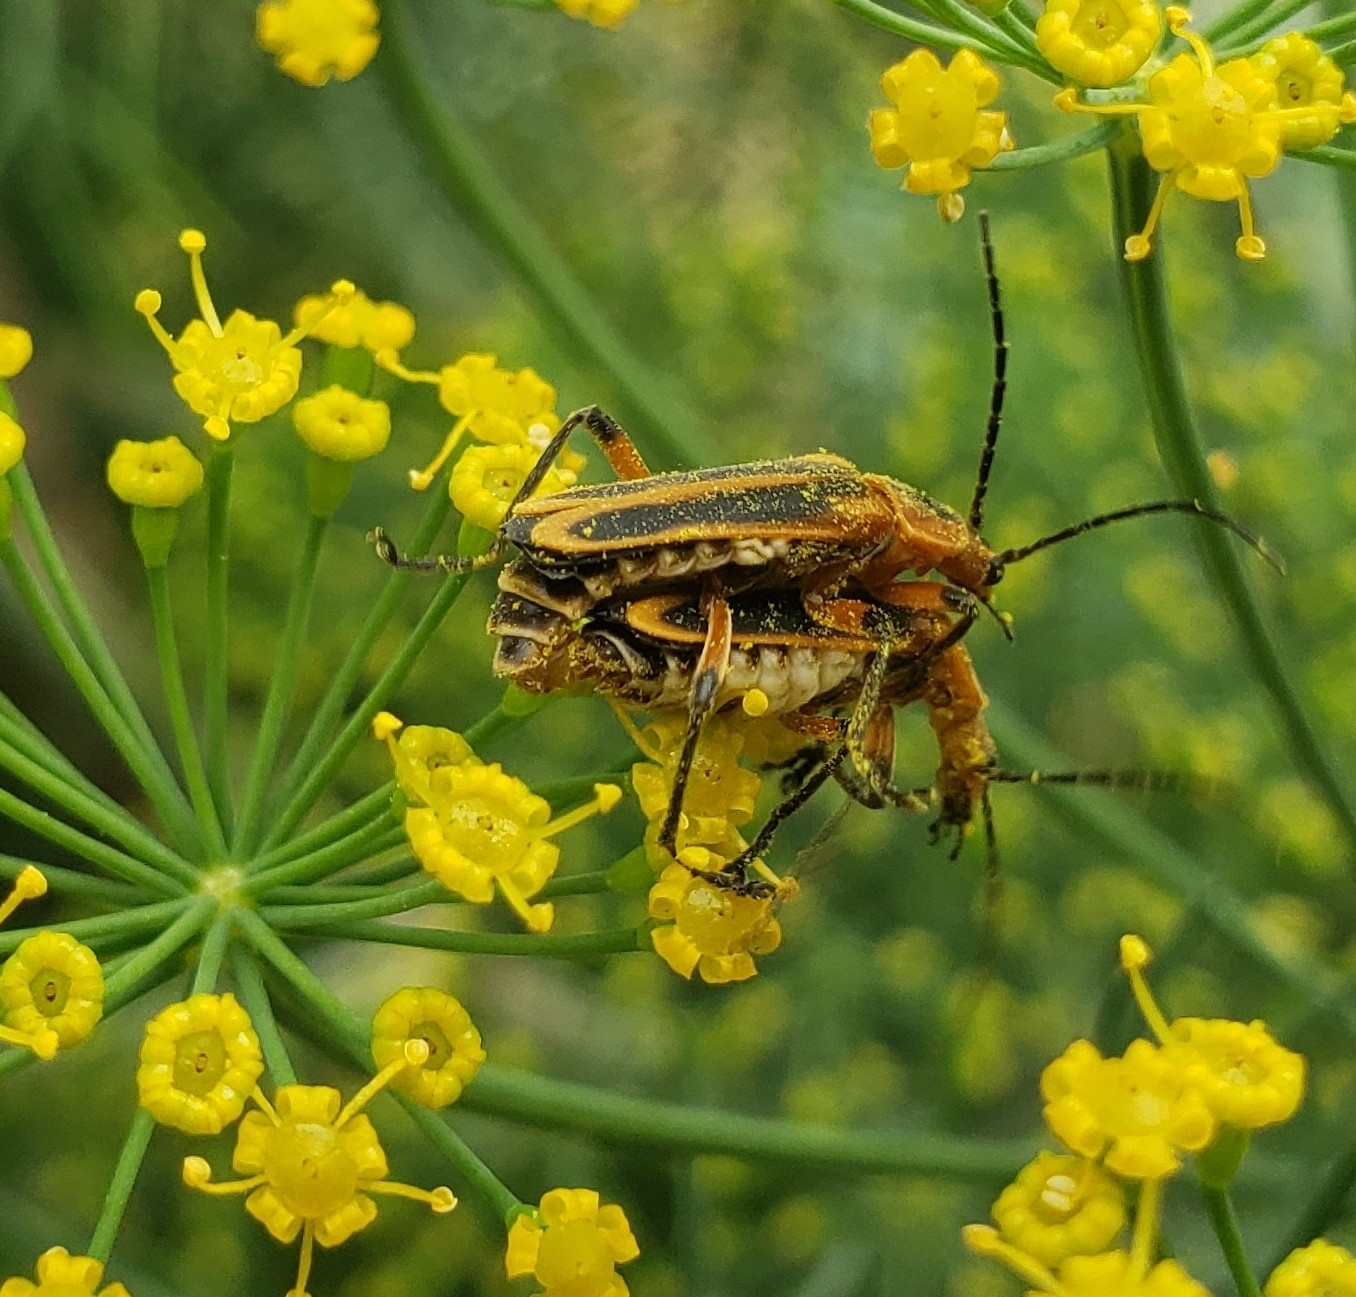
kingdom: Animalia
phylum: Arthropoda
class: Insecta
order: Coleoptera
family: Cantharidae
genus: Chauliognathus
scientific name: Chauliognathus marginatus
